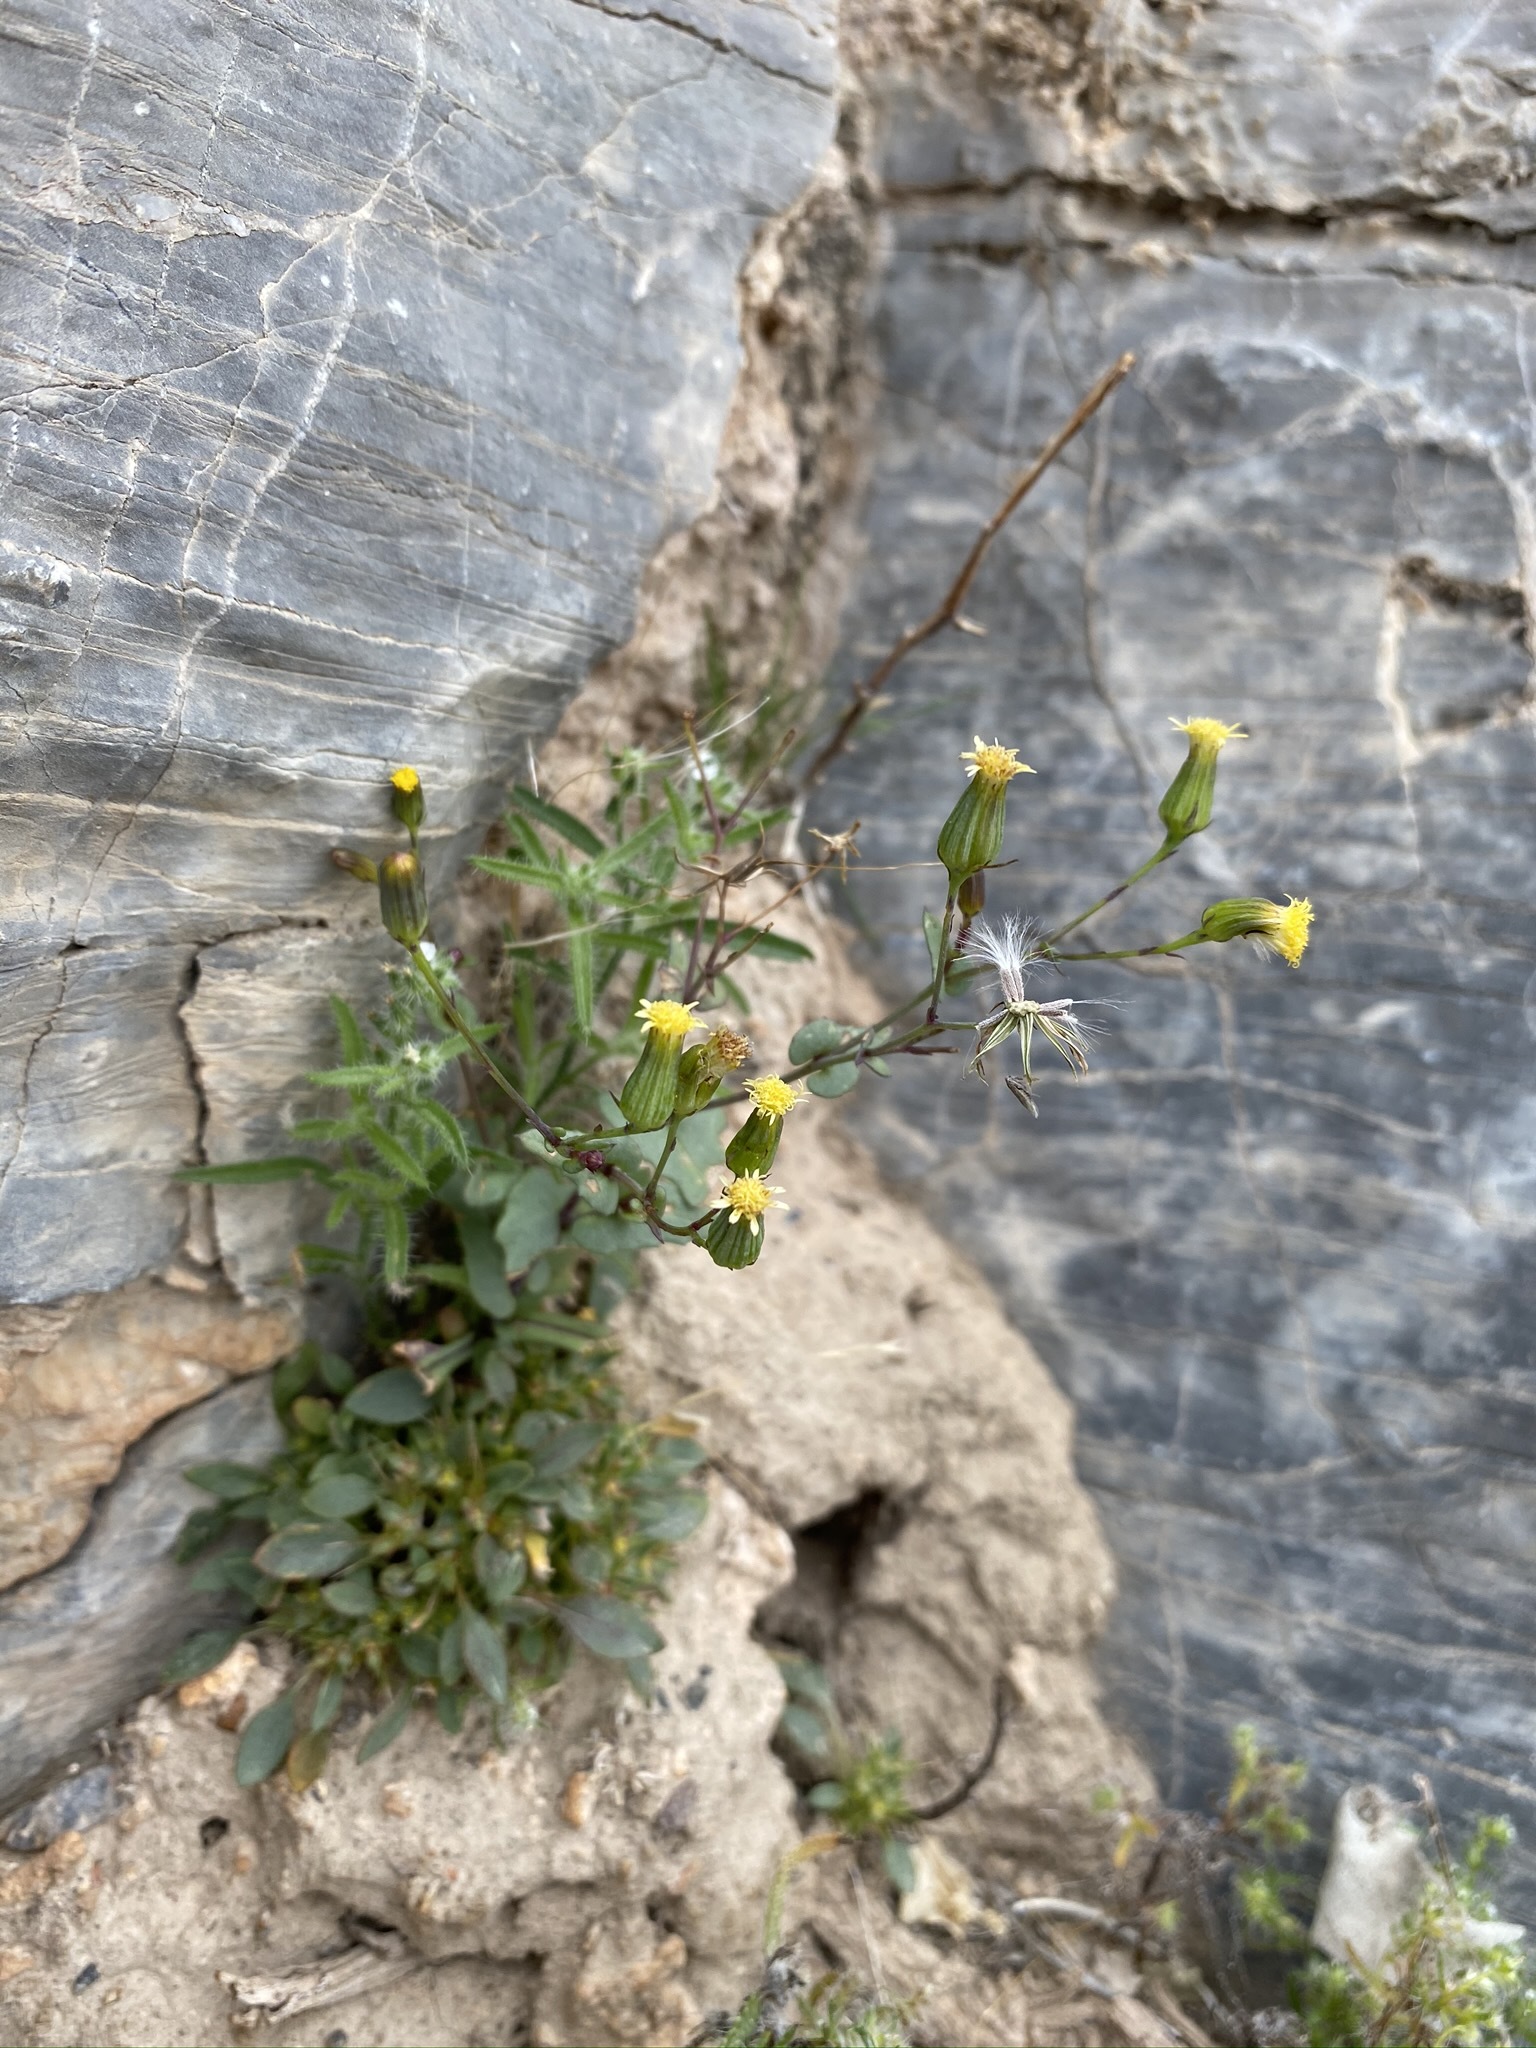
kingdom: Plantae
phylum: Tracheophyta
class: Magnoliopsida
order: Asterales
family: Asteraceae
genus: Senecio
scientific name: Senecio mohavensis
